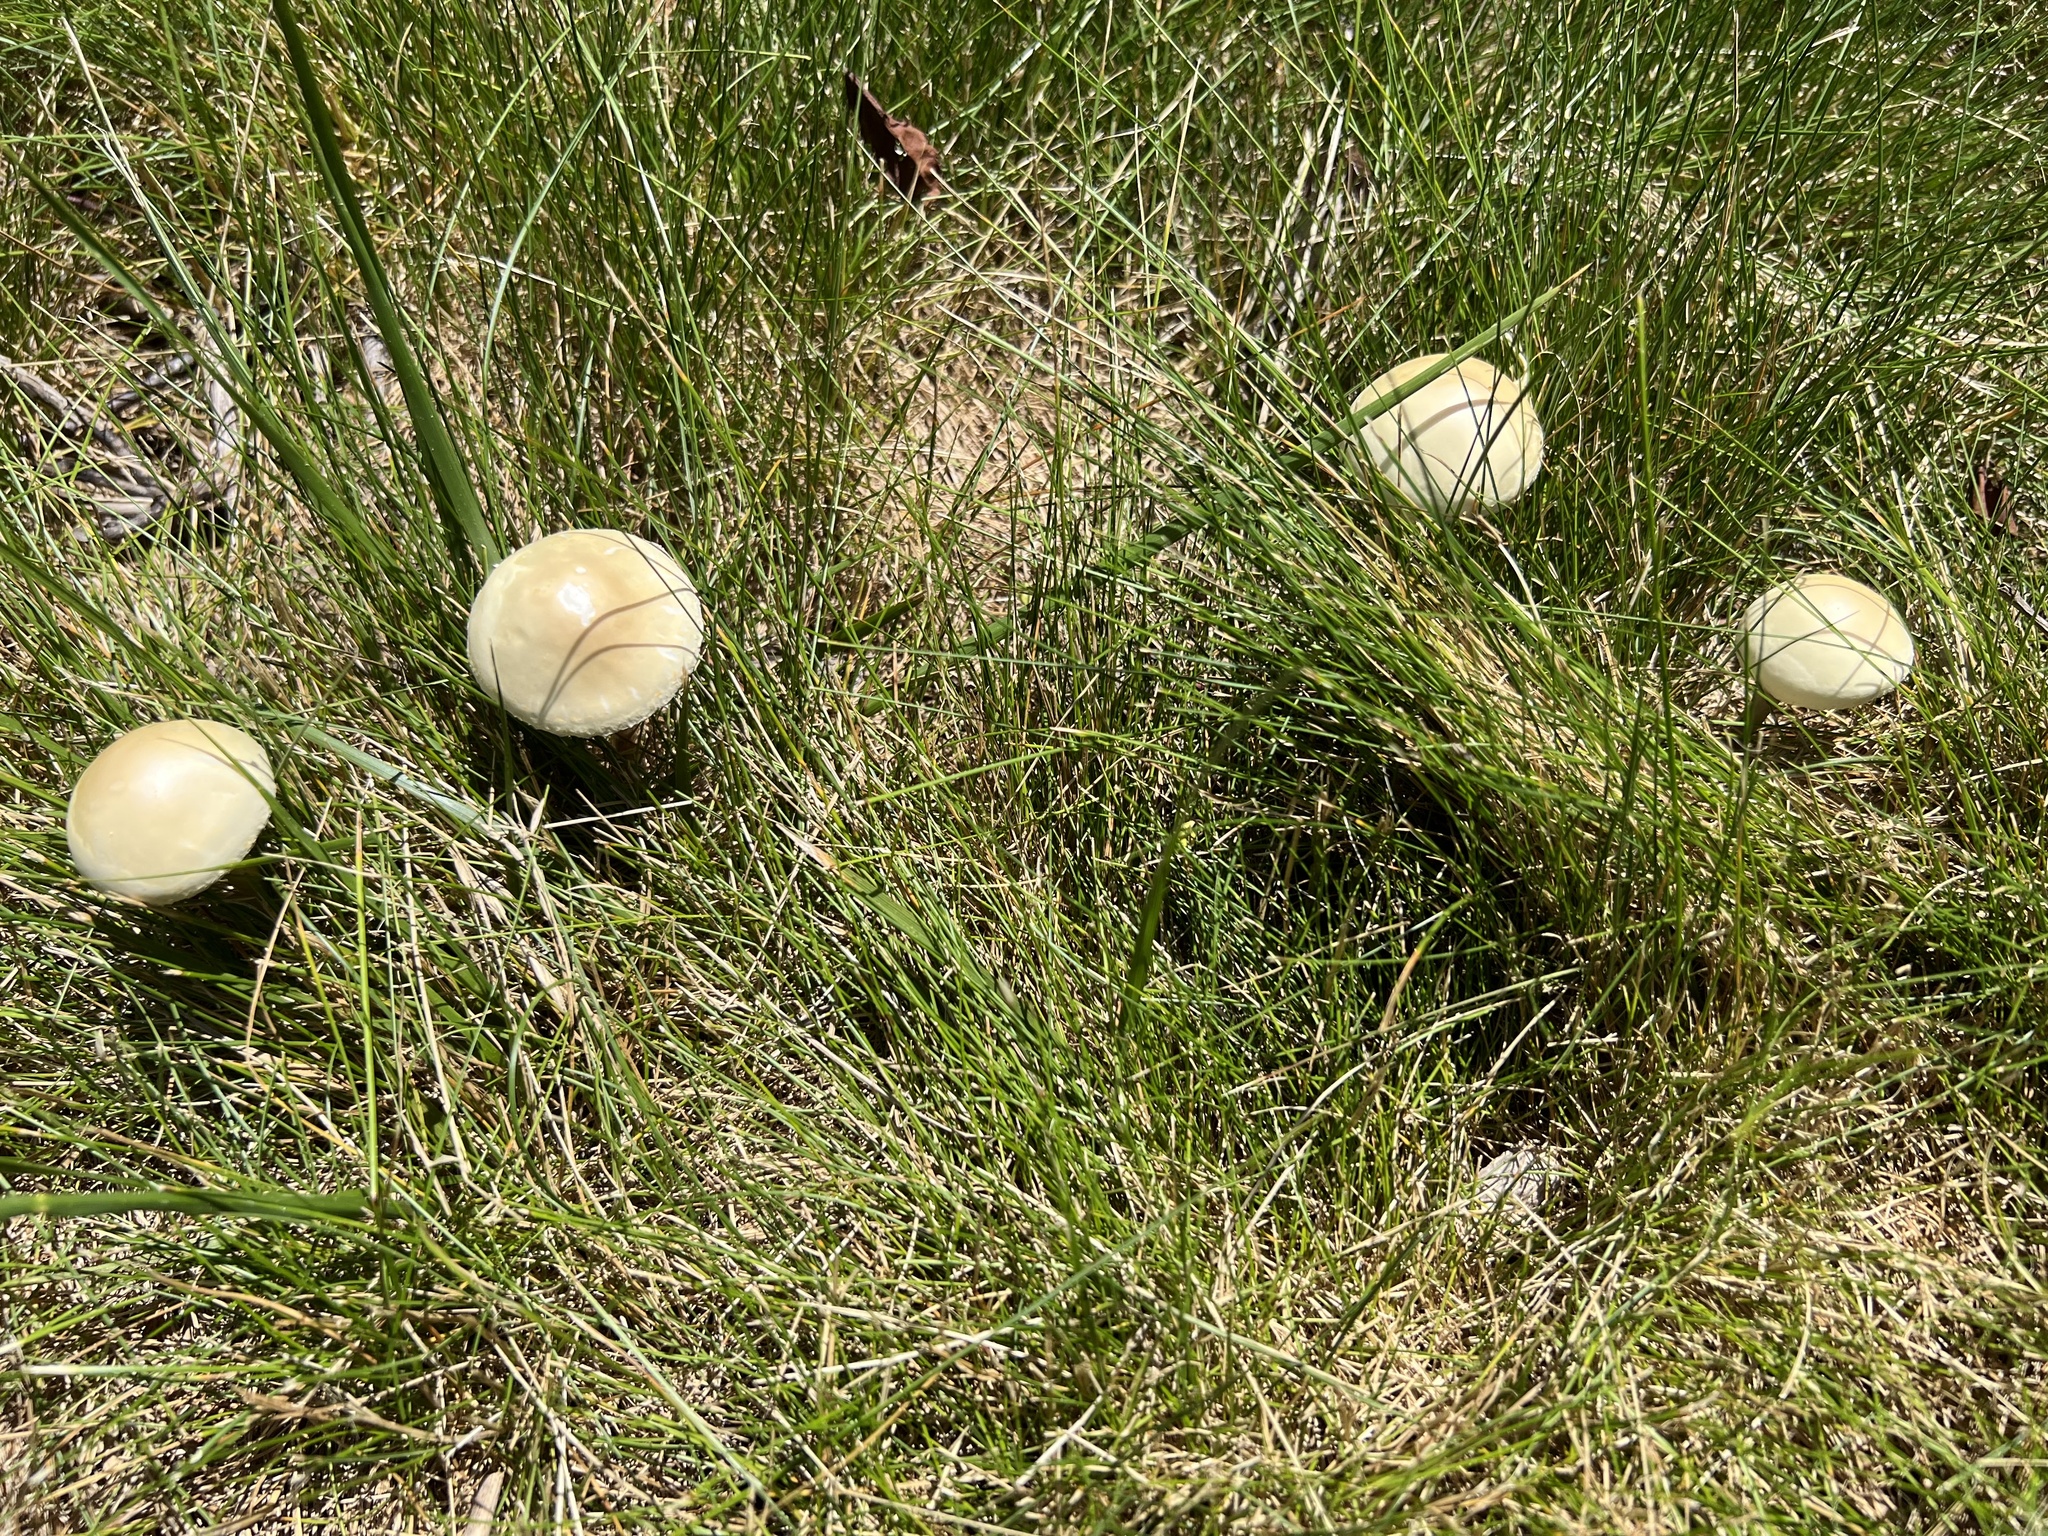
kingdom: Fungi
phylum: Basidiomycota
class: Agaricomycetes
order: Agaricales
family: Strophariaceae
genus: Agrocybe
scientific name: Agrocybe molesta
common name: Bearded fieldcap
